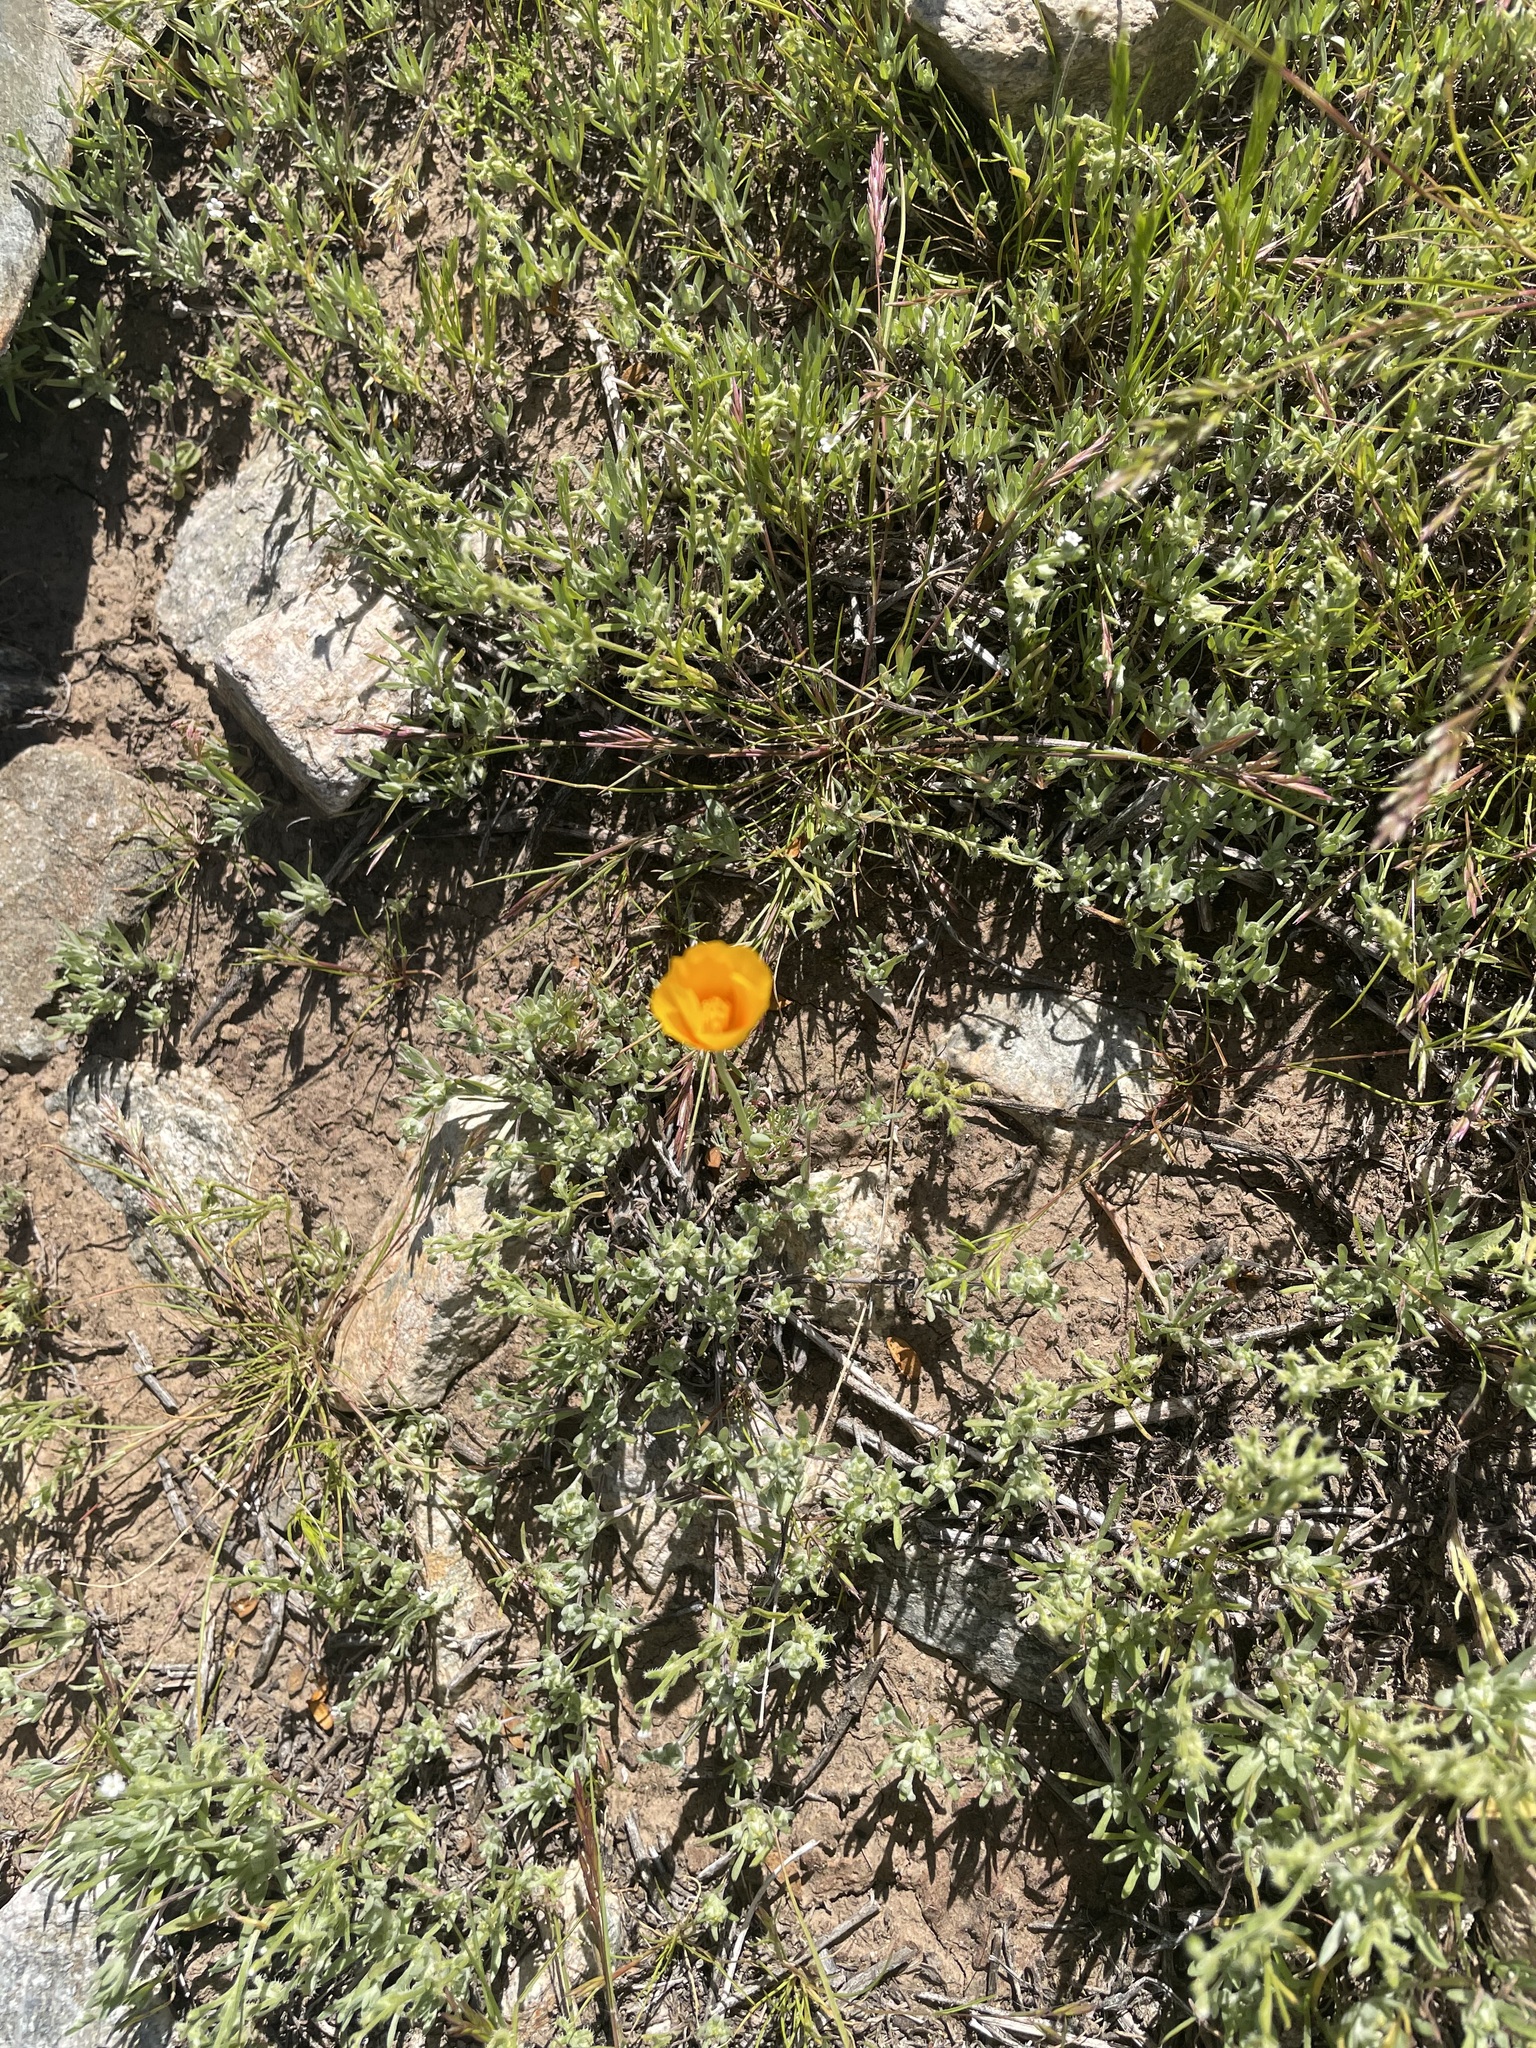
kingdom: Plantae
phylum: Tracheophyta
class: Magnoliopsida
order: Ranunculales
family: Papaveraceae
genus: Eschscholzia
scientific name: Eschscholzia californica
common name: California poppy
